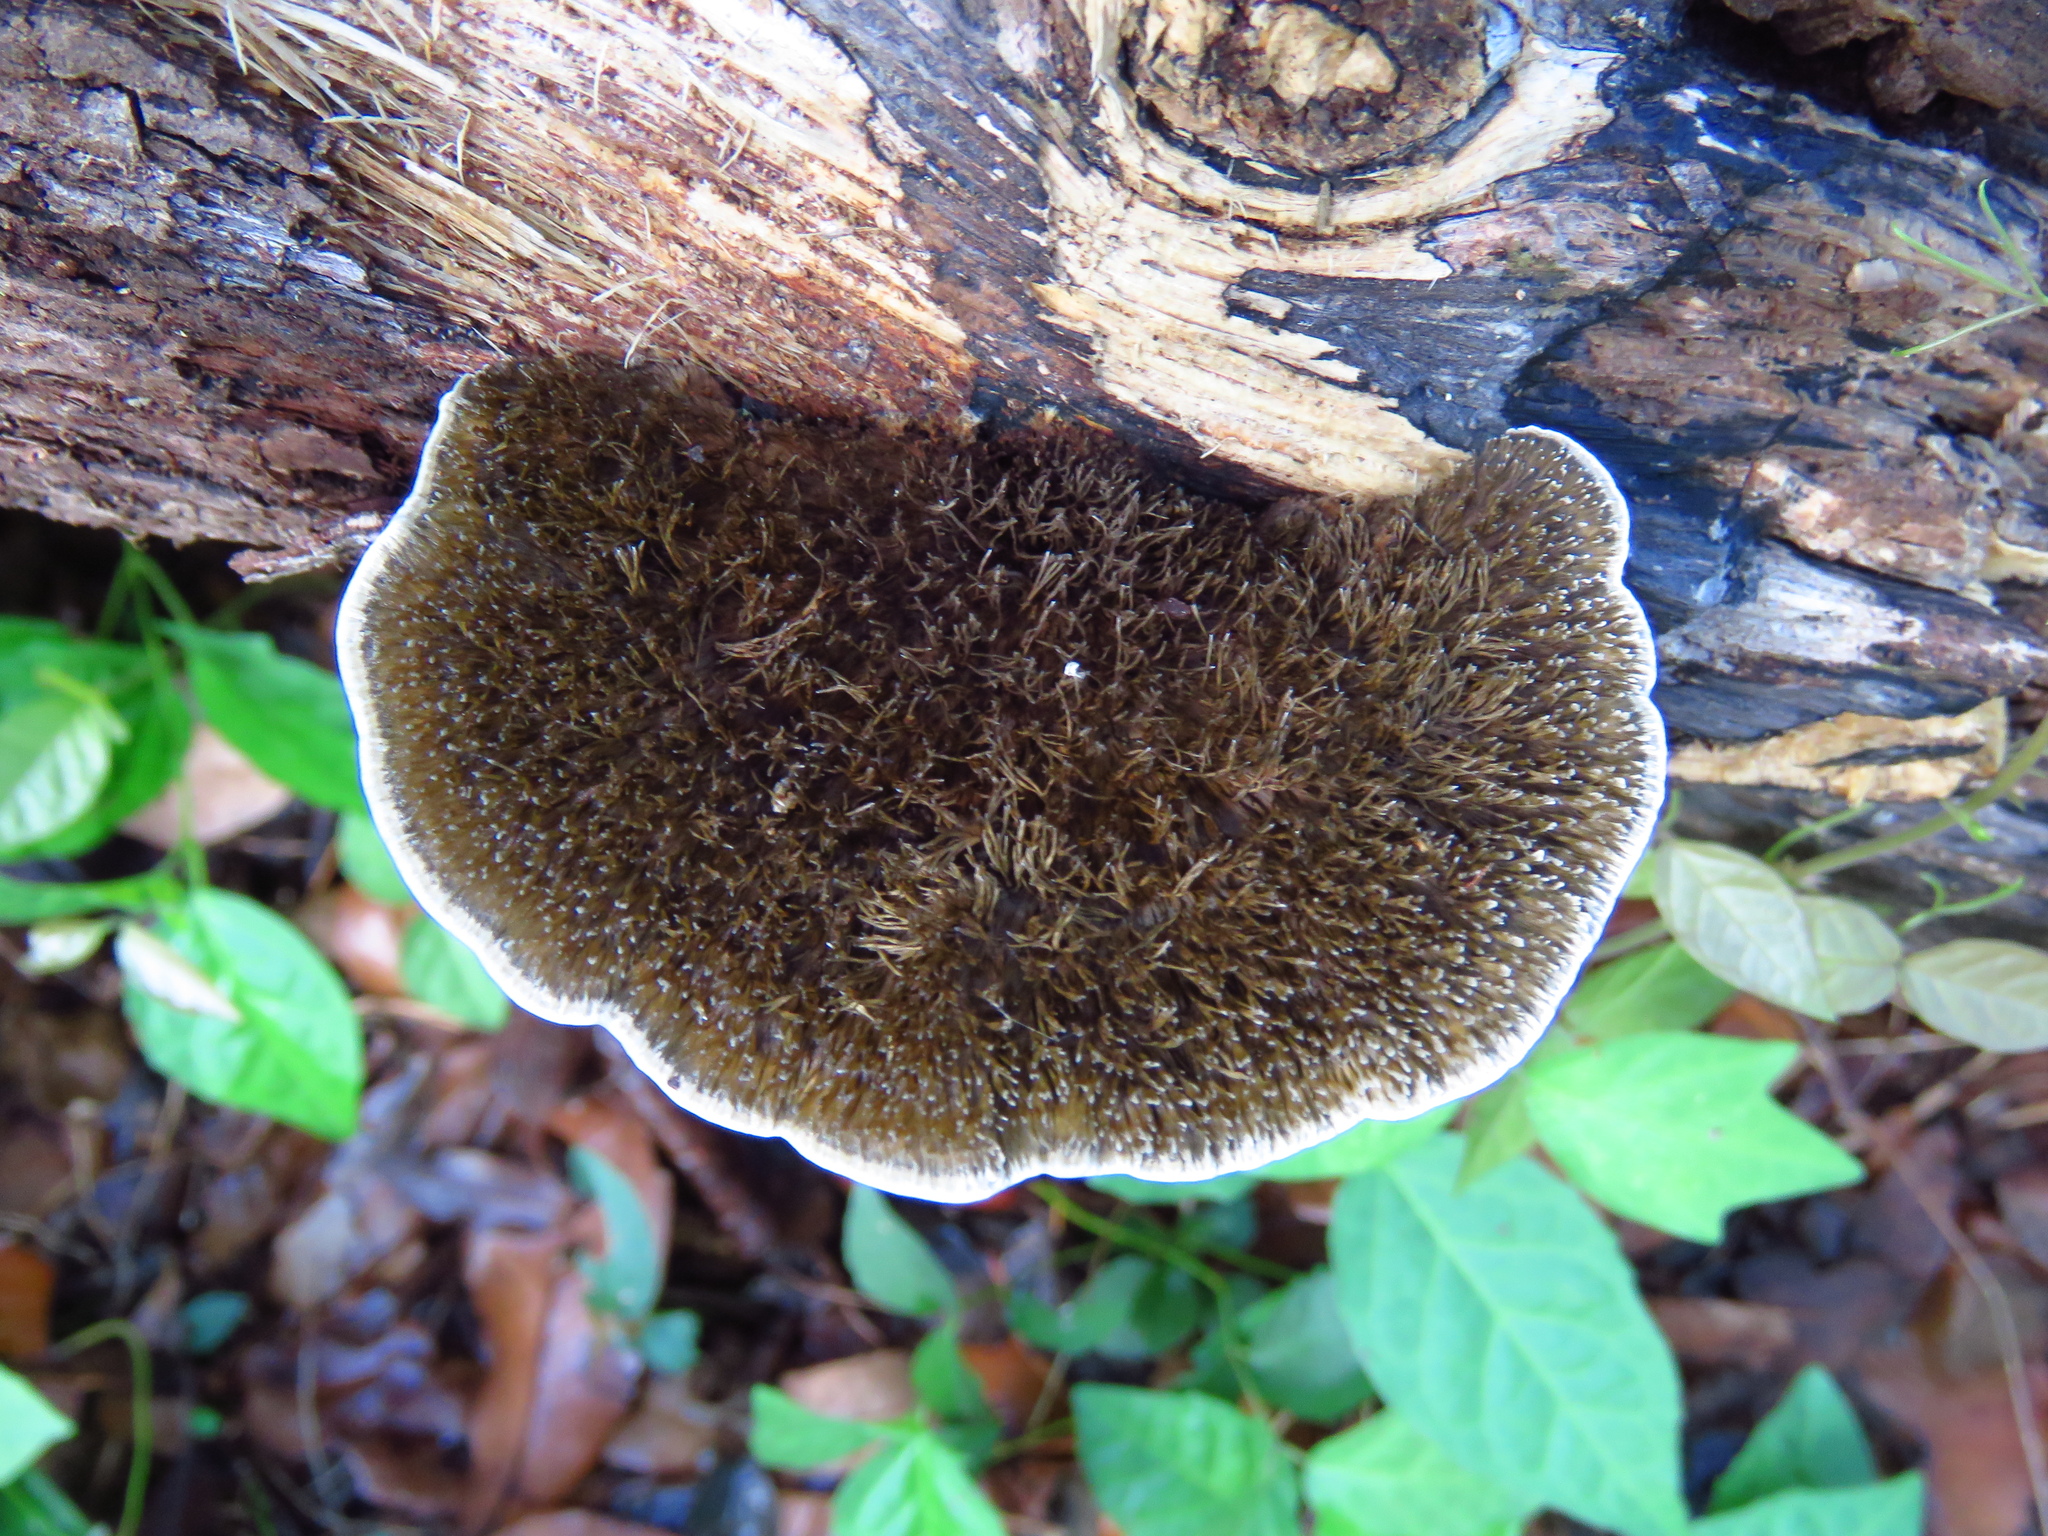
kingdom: Fungi
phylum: Basidiomycota
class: Agaricomycetes
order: Polyporales
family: Cerrenaceae
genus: Cerrena
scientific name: Cerrena hydnoides
